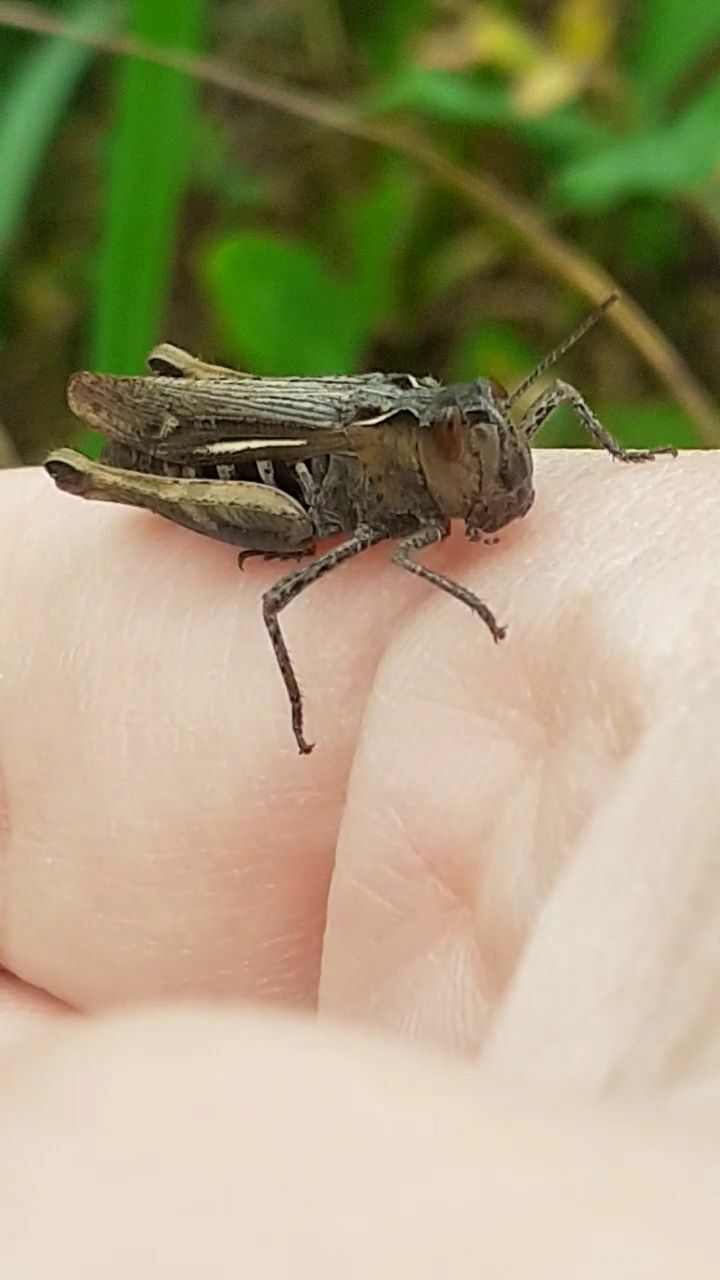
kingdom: Animalia
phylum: Arthropoda
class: Insecta
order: Orthoptera
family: Acrididae
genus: Chorthippus
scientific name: Chorthippus biguttulus
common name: Bow-winged grasshopper
